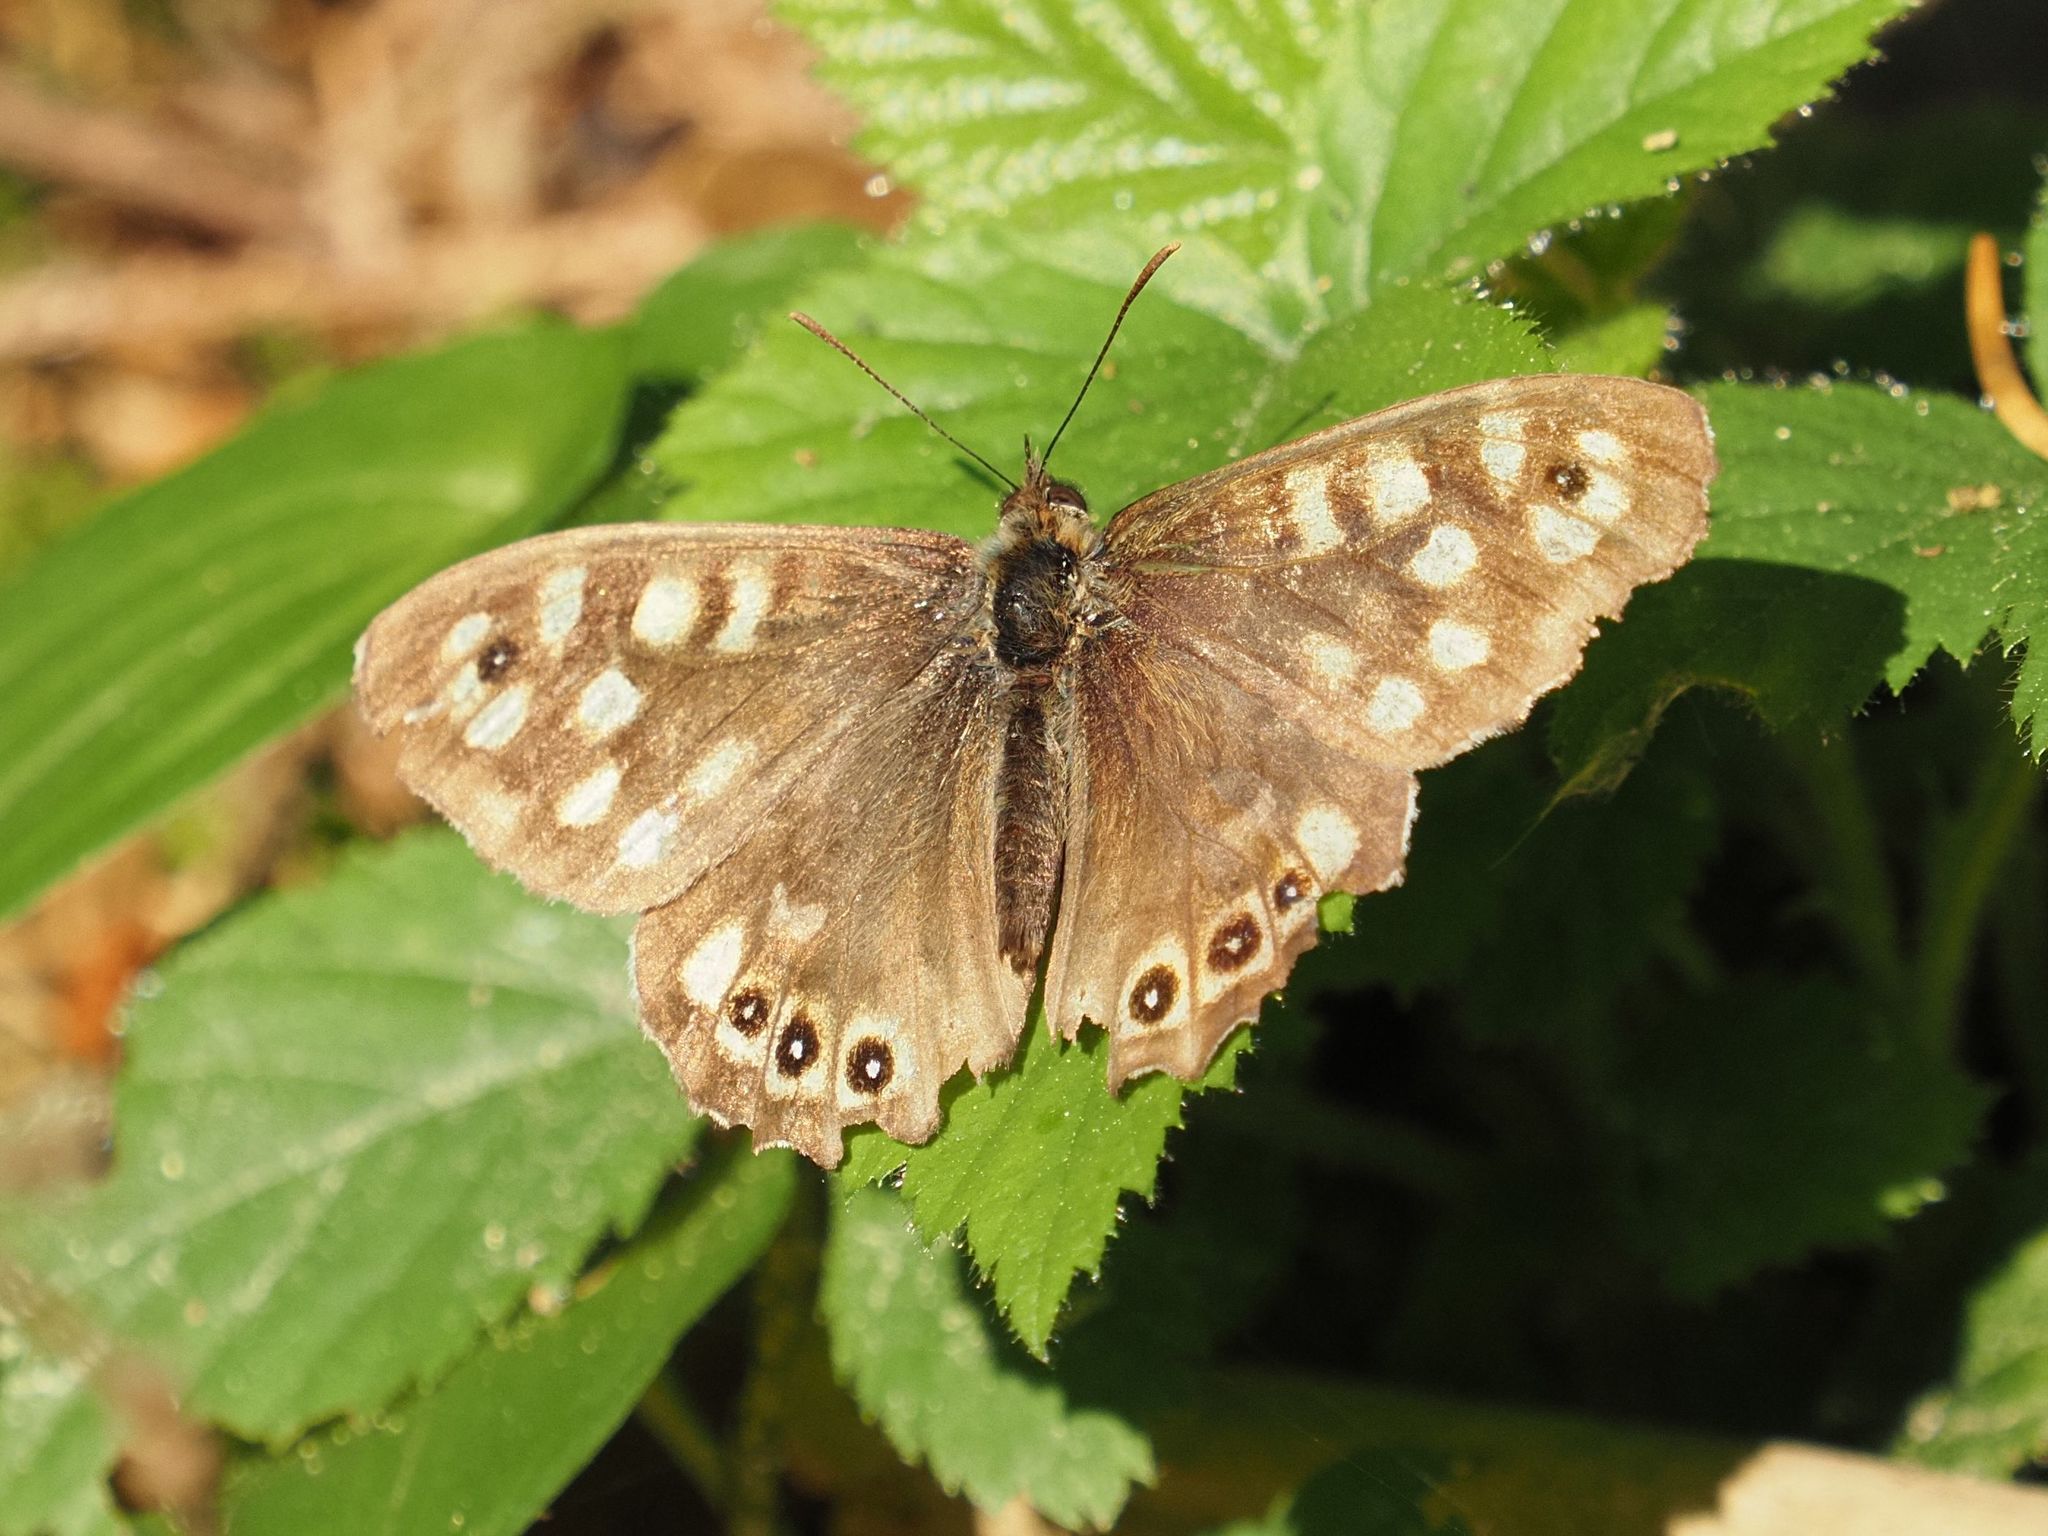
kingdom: Animalia
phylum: Arthropoda
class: Insecta
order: Lepidoptera
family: Nymphalidae
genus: Pararge
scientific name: Pararge aegeria
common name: Speckled wood
